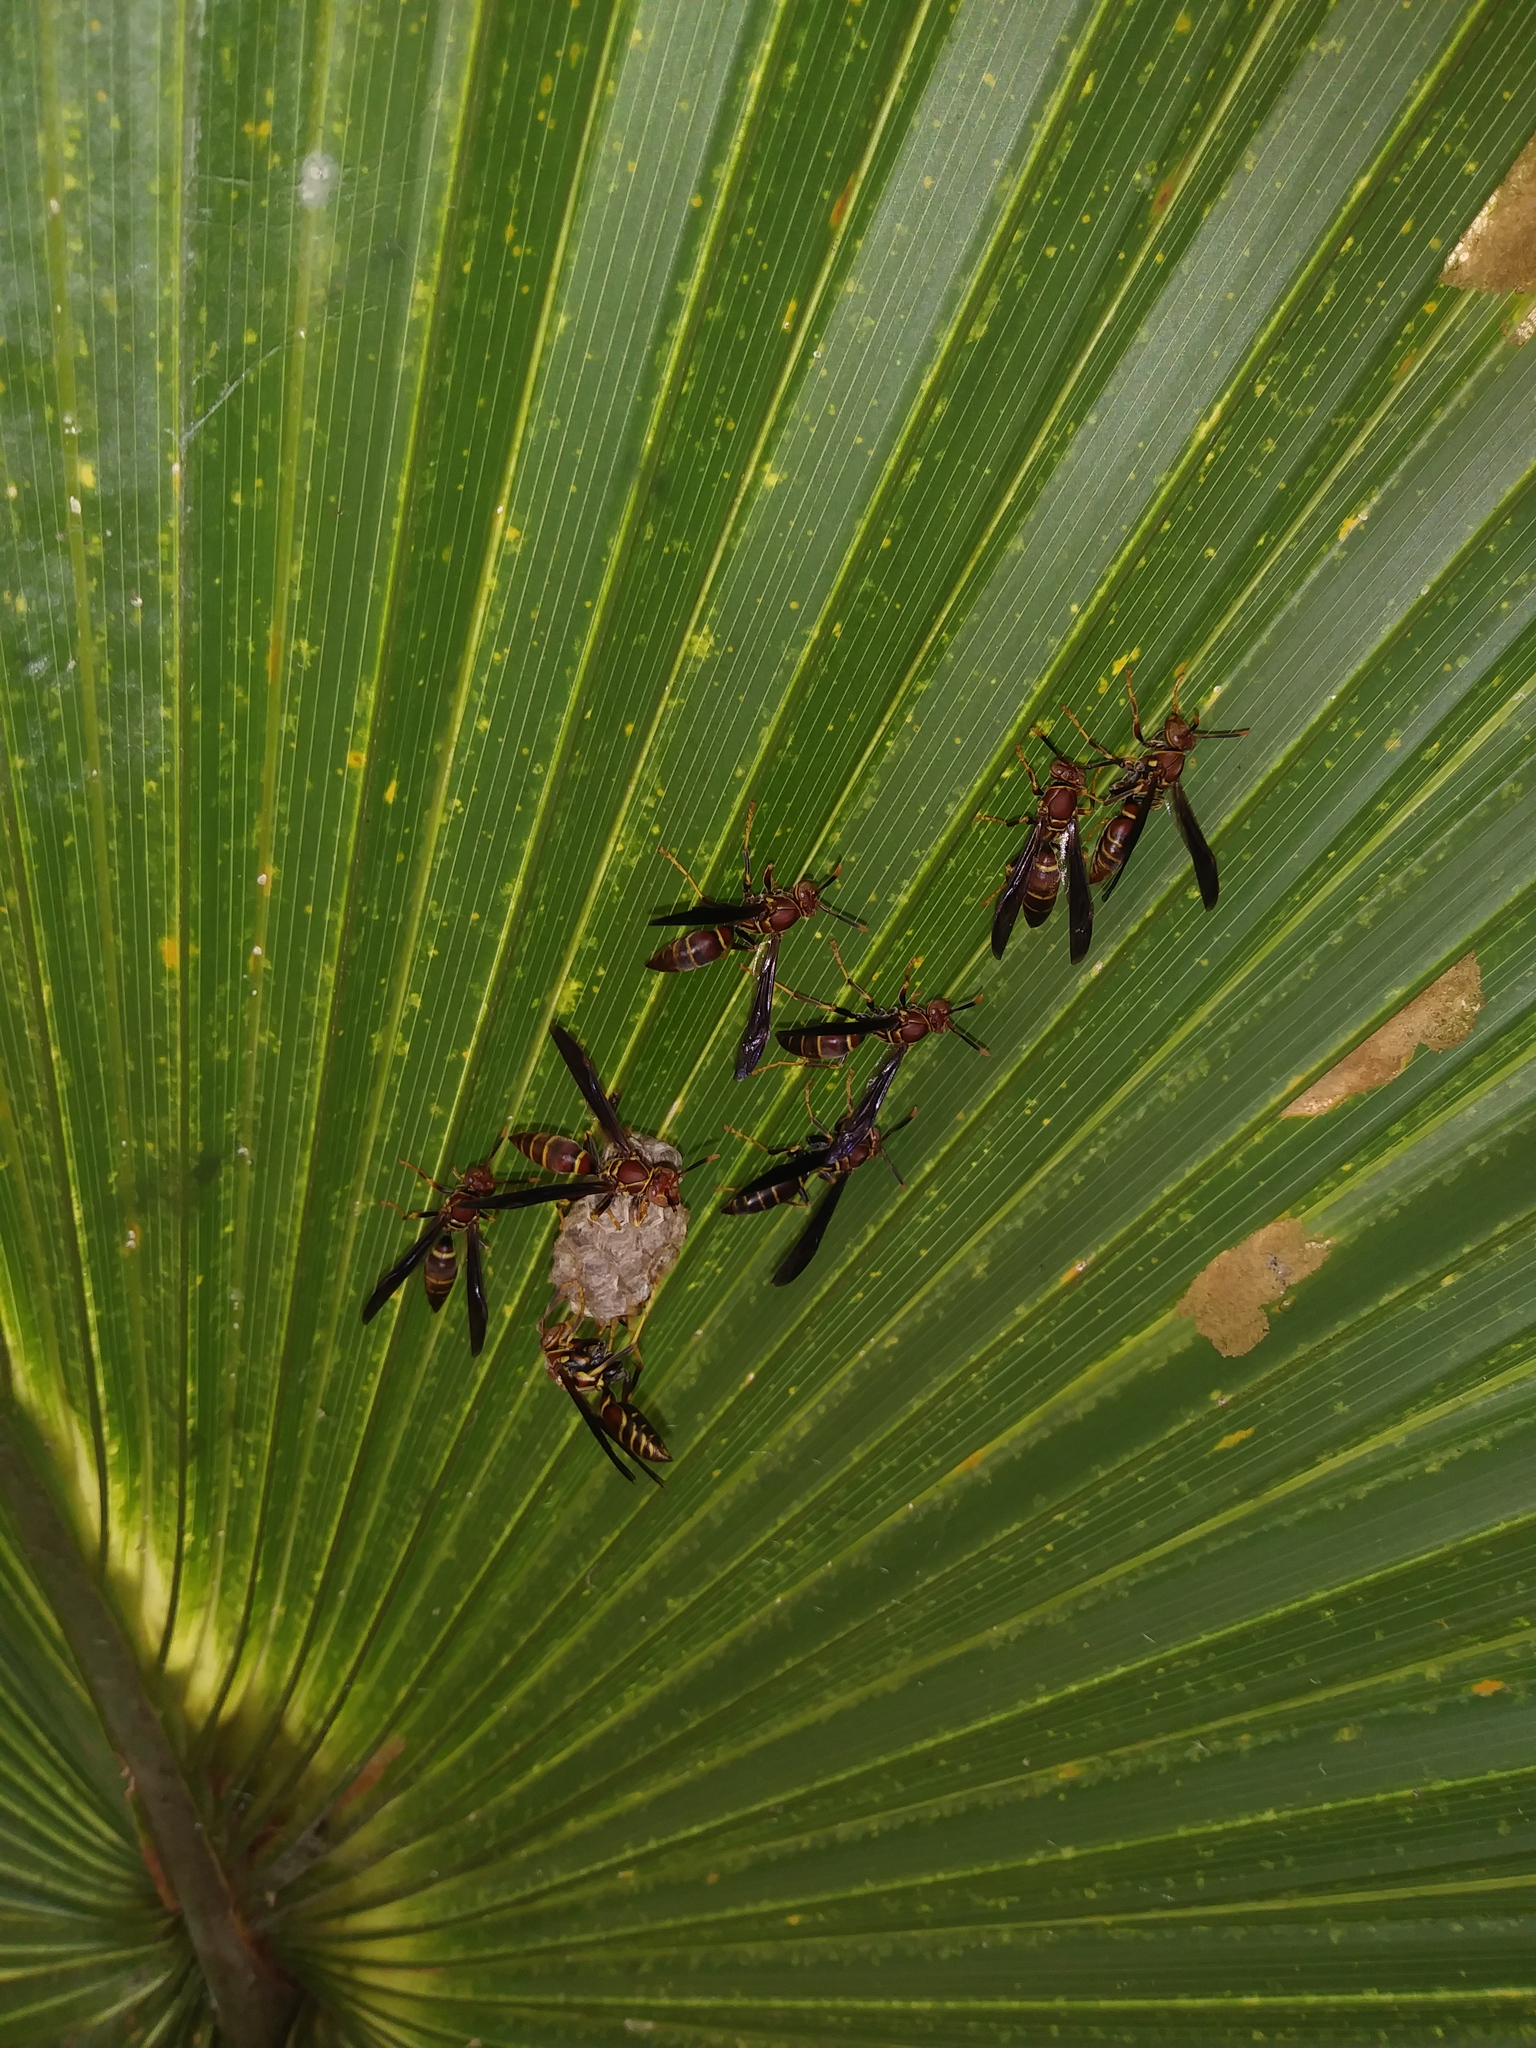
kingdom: Animalia
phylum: Arthropoda
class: Insecta
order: Hymenoptera
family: Eumenidae
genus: Polistes
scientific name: Polistes bahamensis
